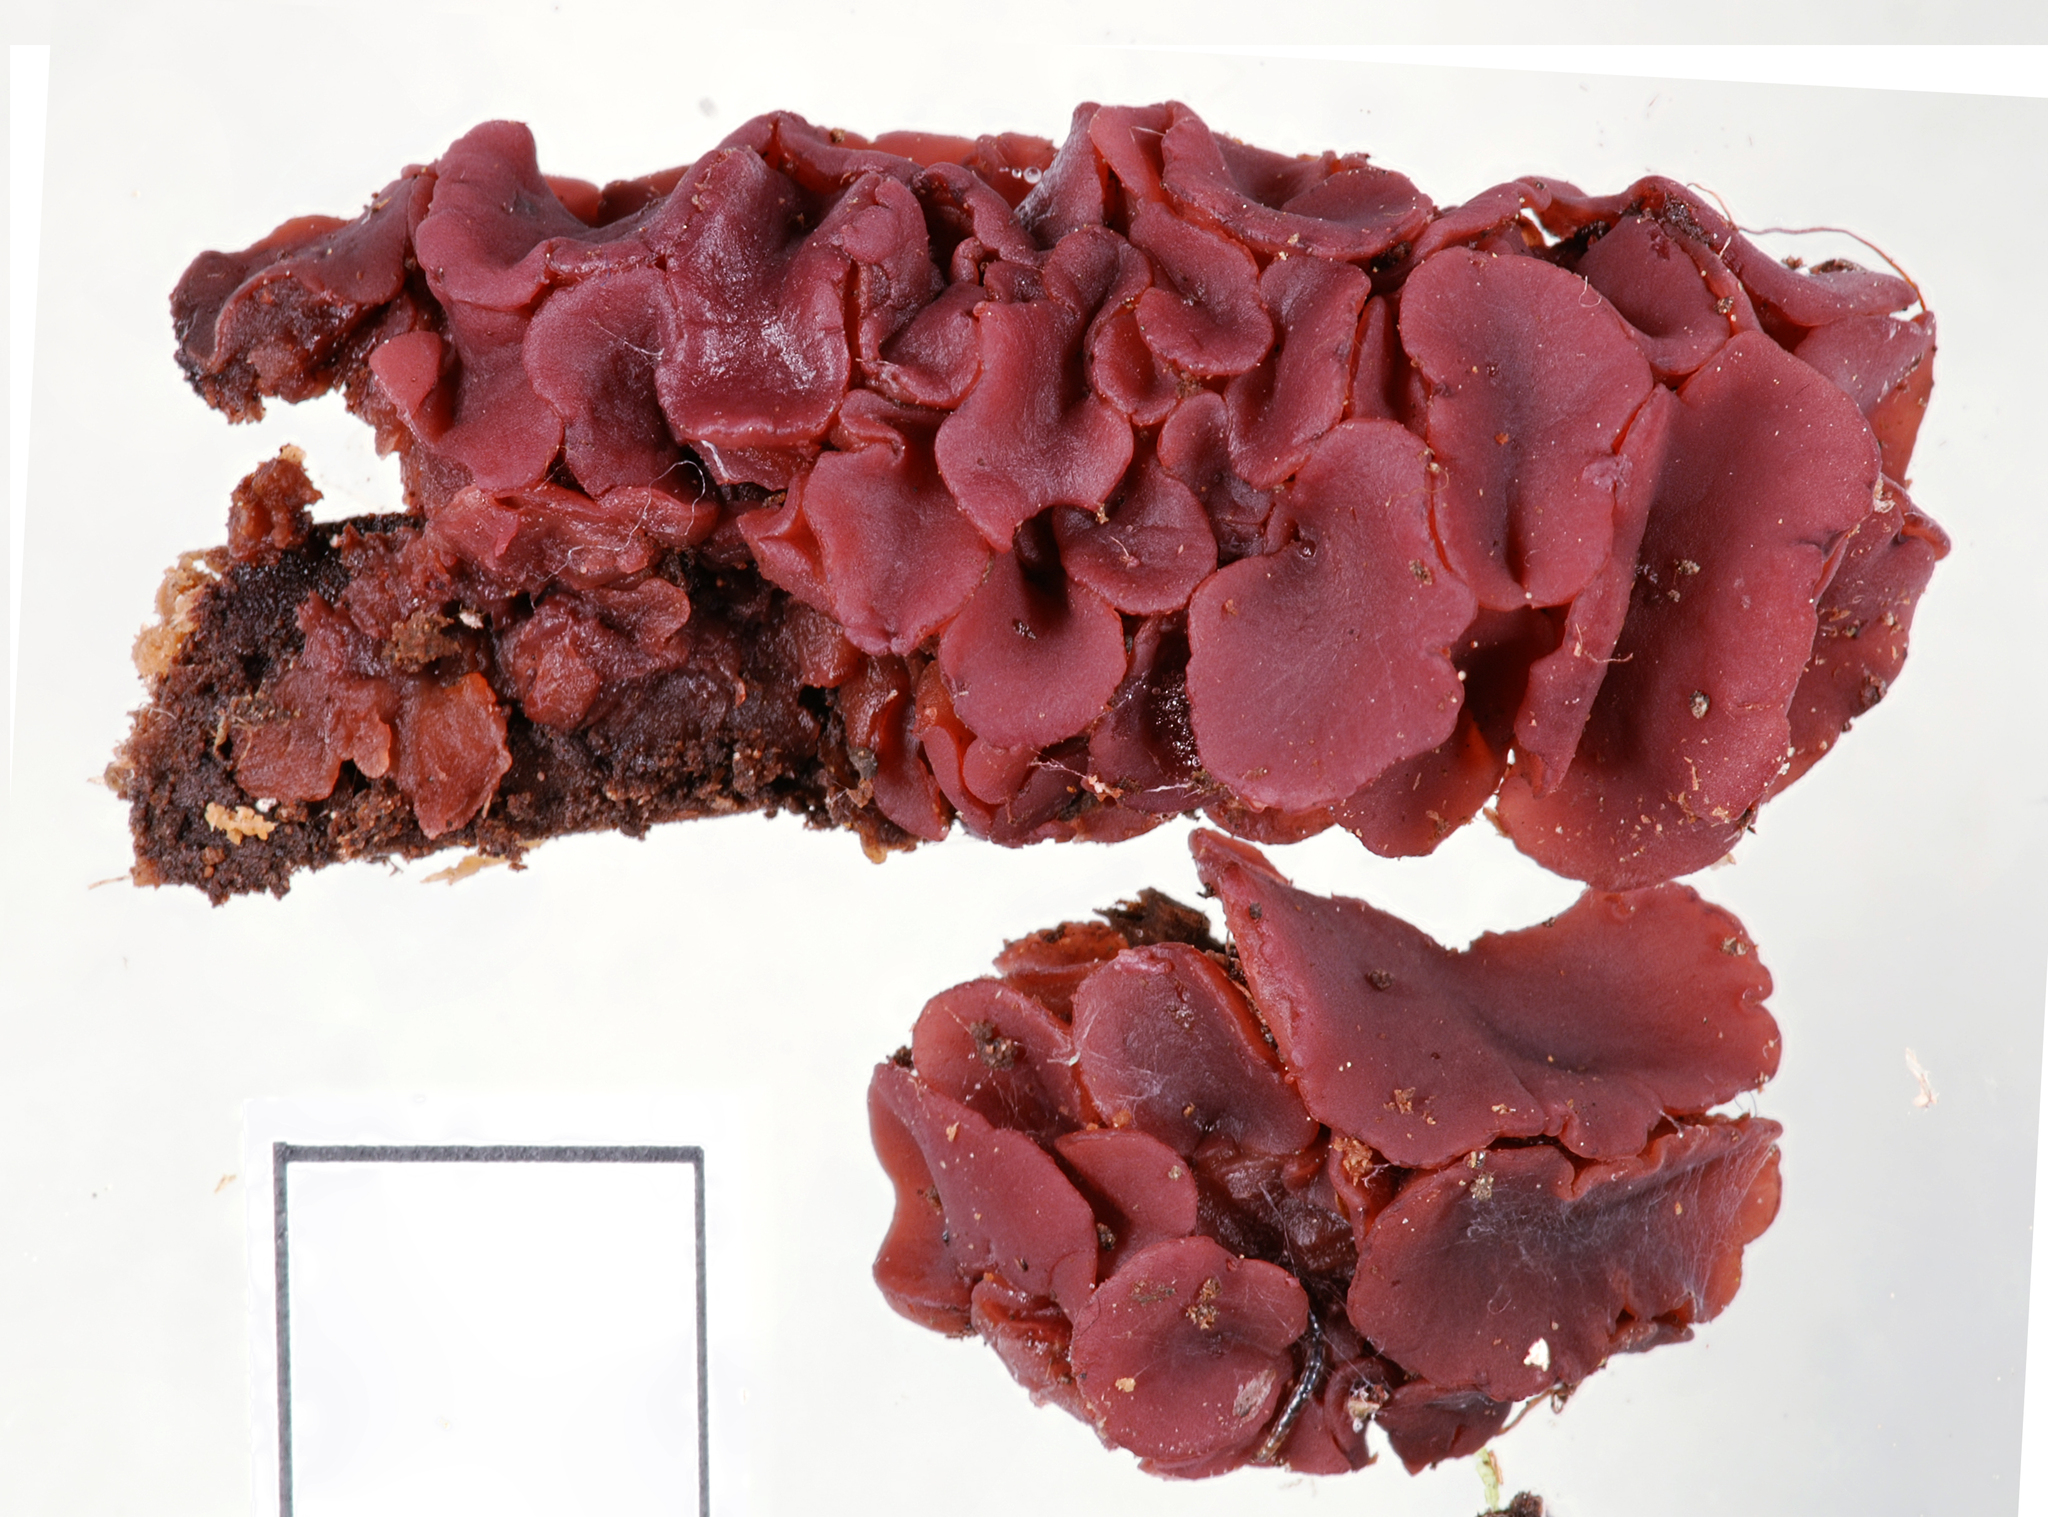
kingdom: Fungi
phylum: Ascomycota
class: Leotiomycetes
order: Helotiales
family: Gelatinodiscaceae
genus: Ascocoryne
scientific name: Ascocoryne sarcoides
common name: Purple jellydisc
